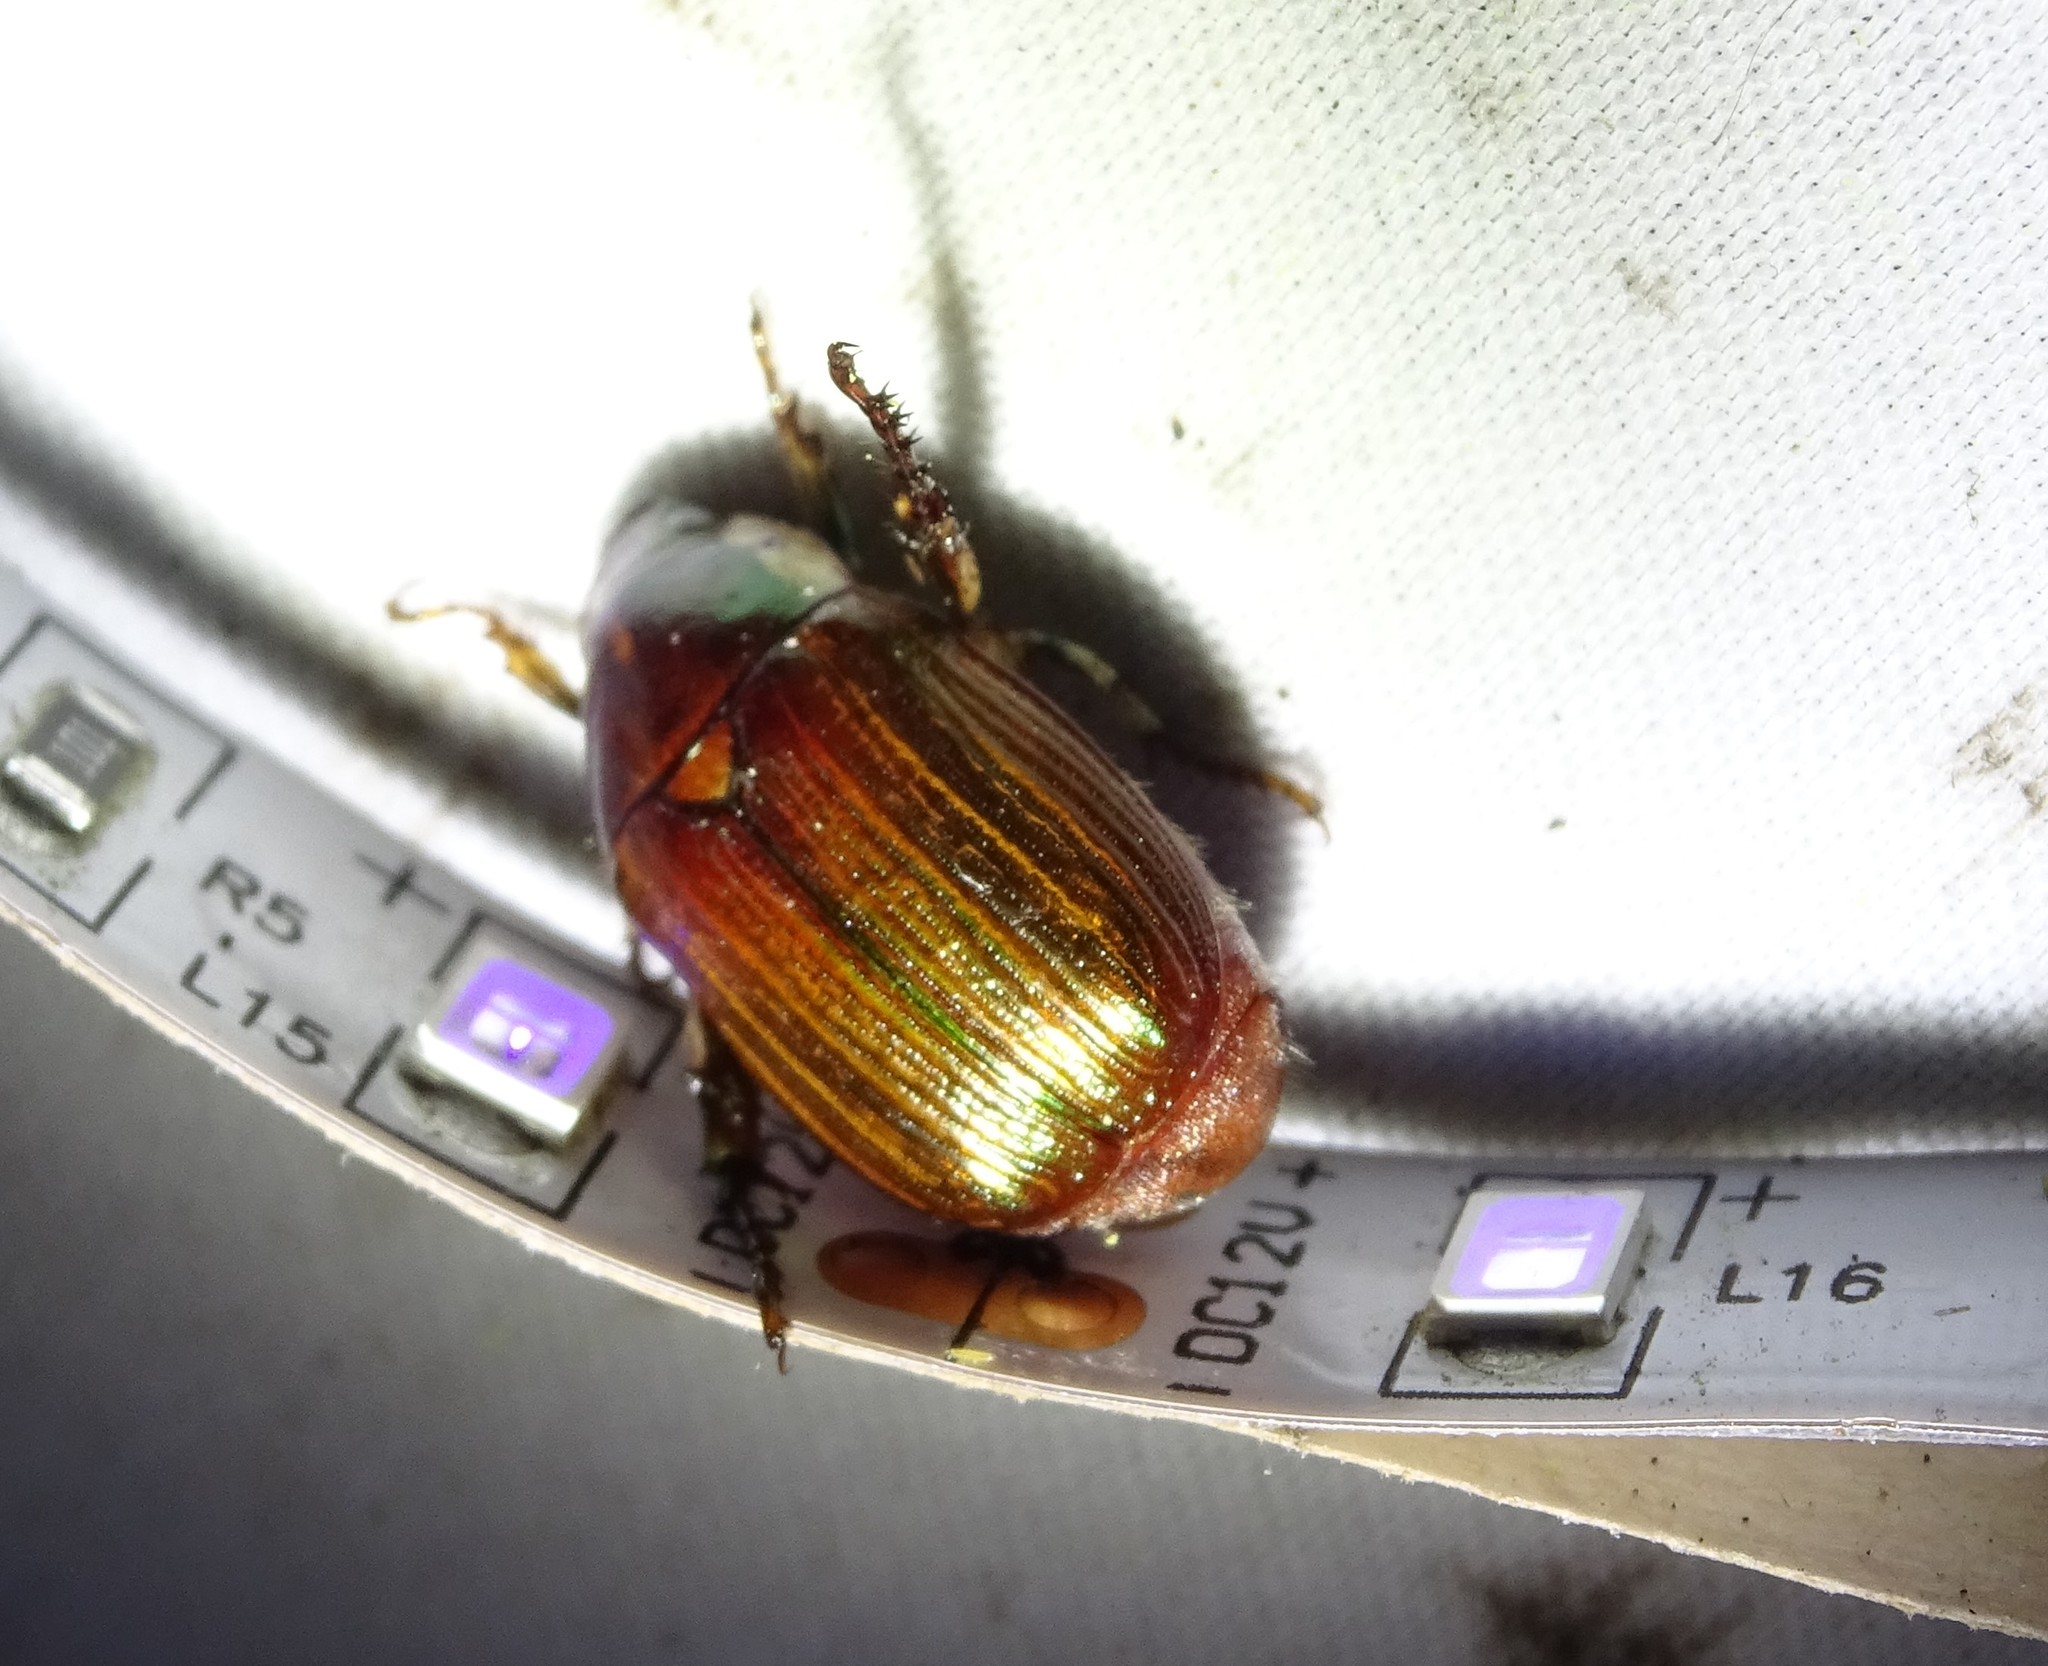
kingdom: Animalia
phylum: Arthropoda
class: Insecta
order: Coleoptera
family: Scarabaeidae
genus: Callistethus
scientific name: Callistethus marginatus
